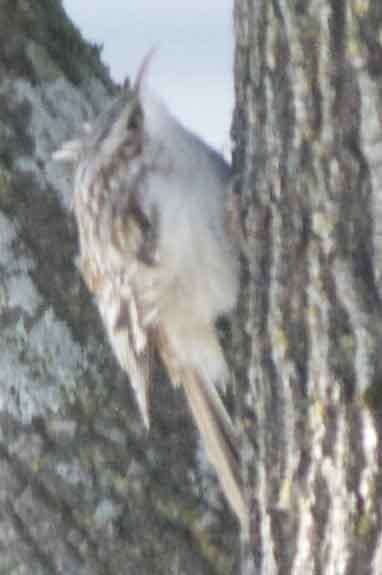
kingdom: Animalia
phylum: Chordata
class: Aves
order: Passeriformes
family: Certhiidae
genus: Certhia
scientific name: Certhia americana
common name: Brown creeper
